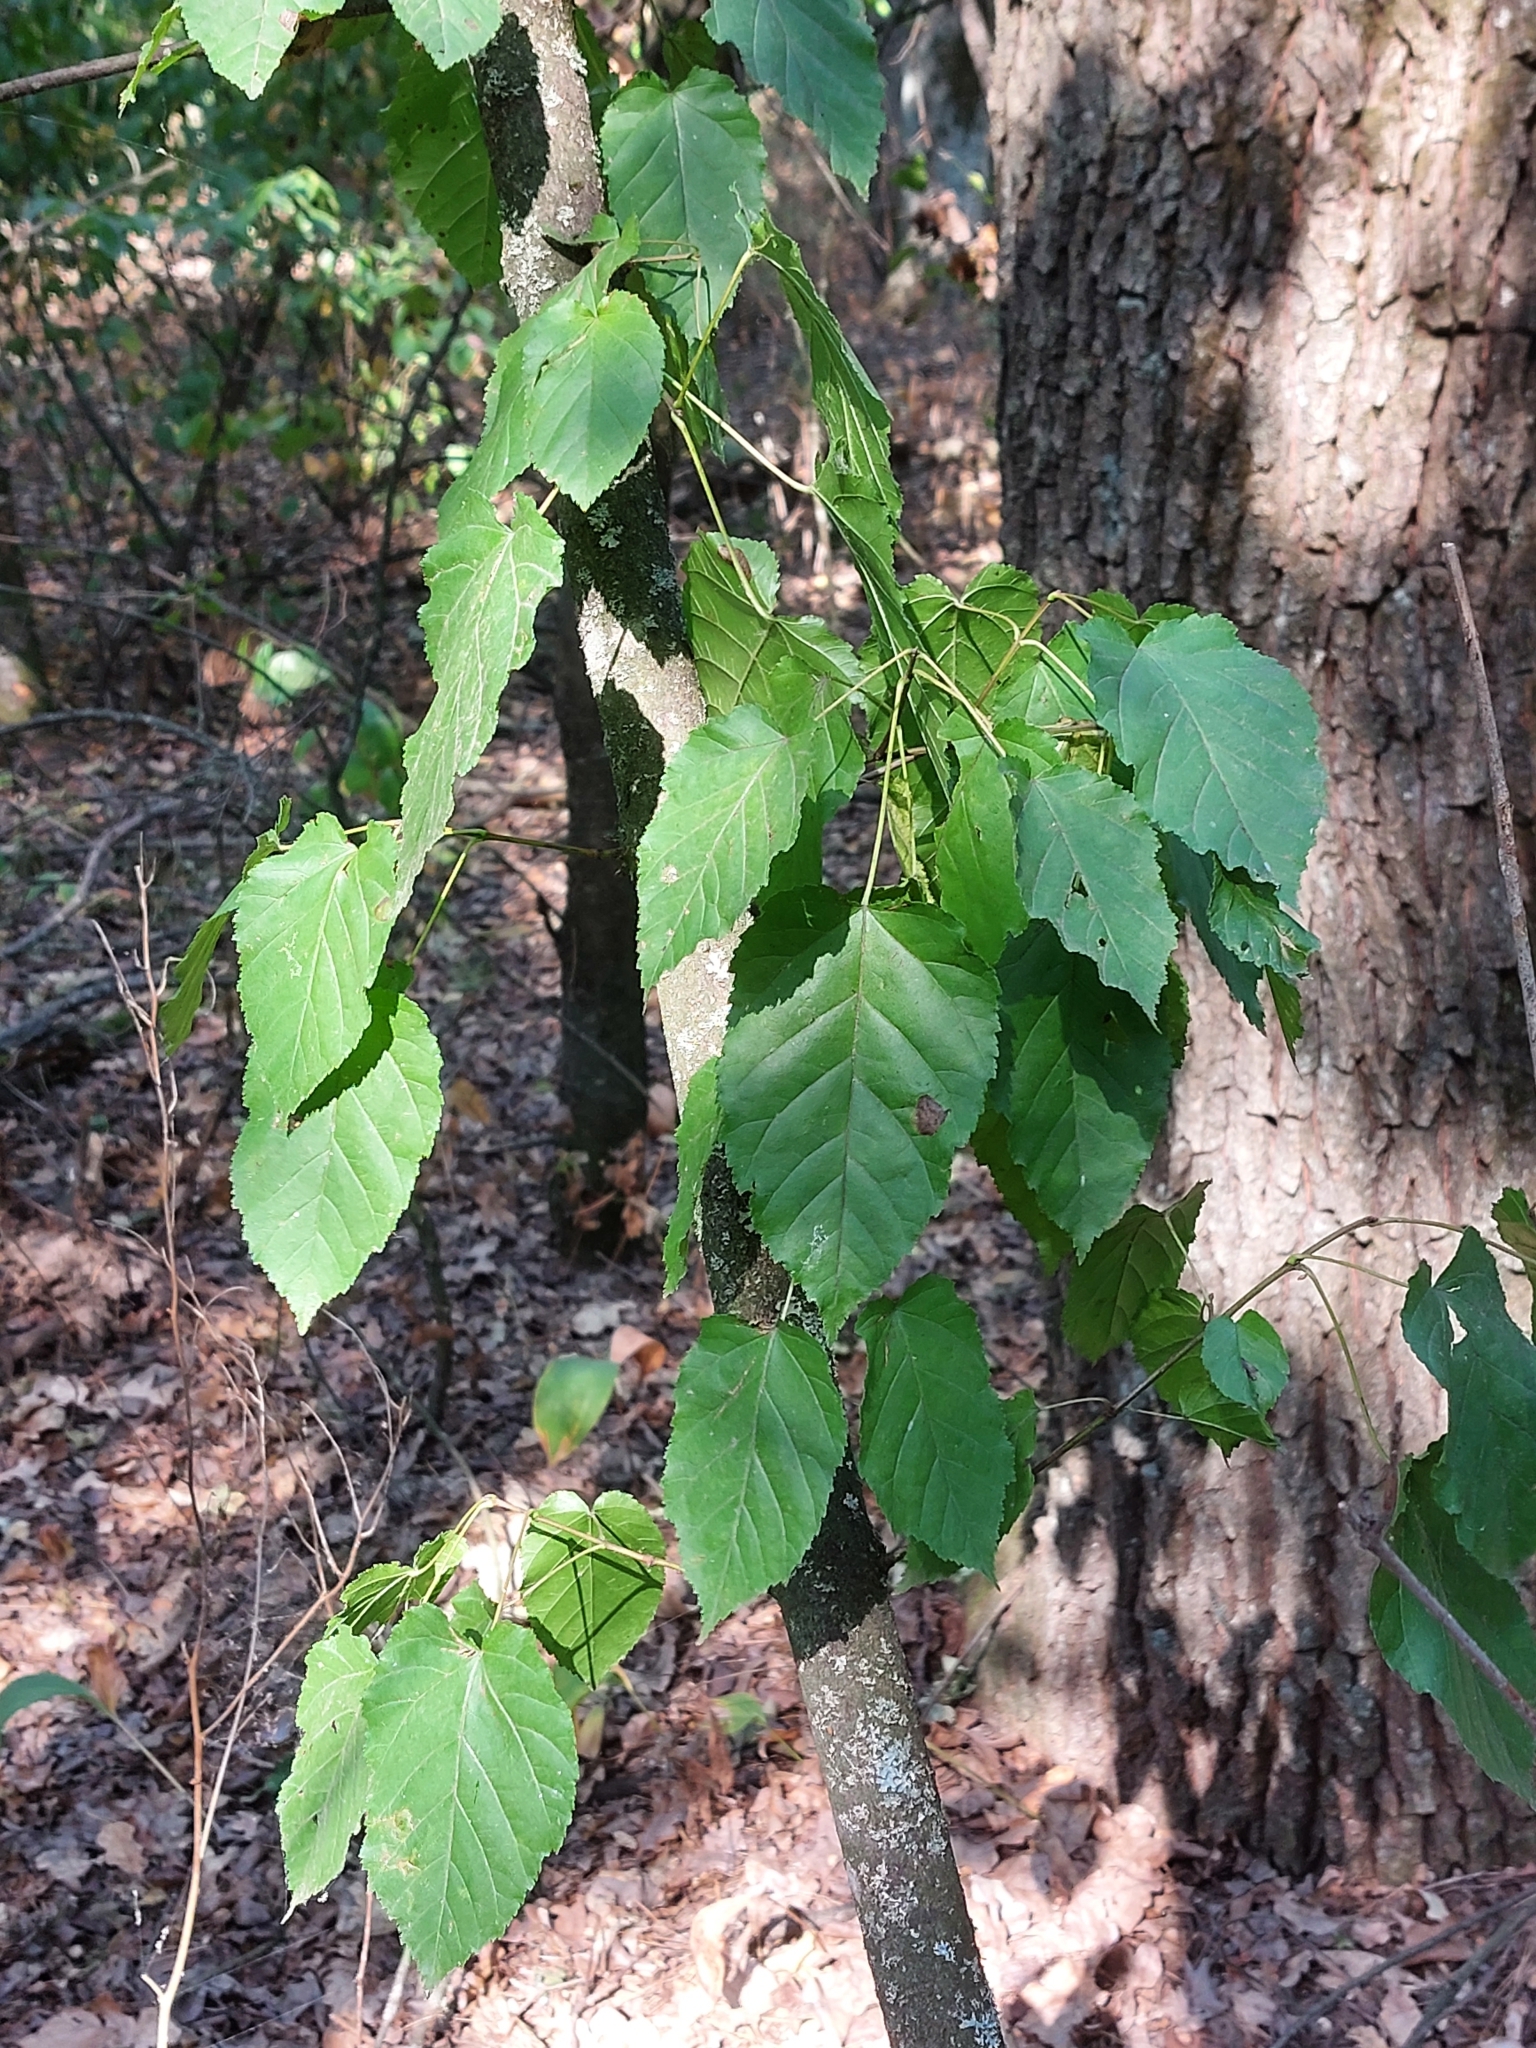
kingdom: Plantae
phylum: Tracheophyta
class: Magnoliopsida
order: Sapindales
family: Sapindaceae
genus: Acer
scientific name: Acer tataricum
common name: Tartar maple
